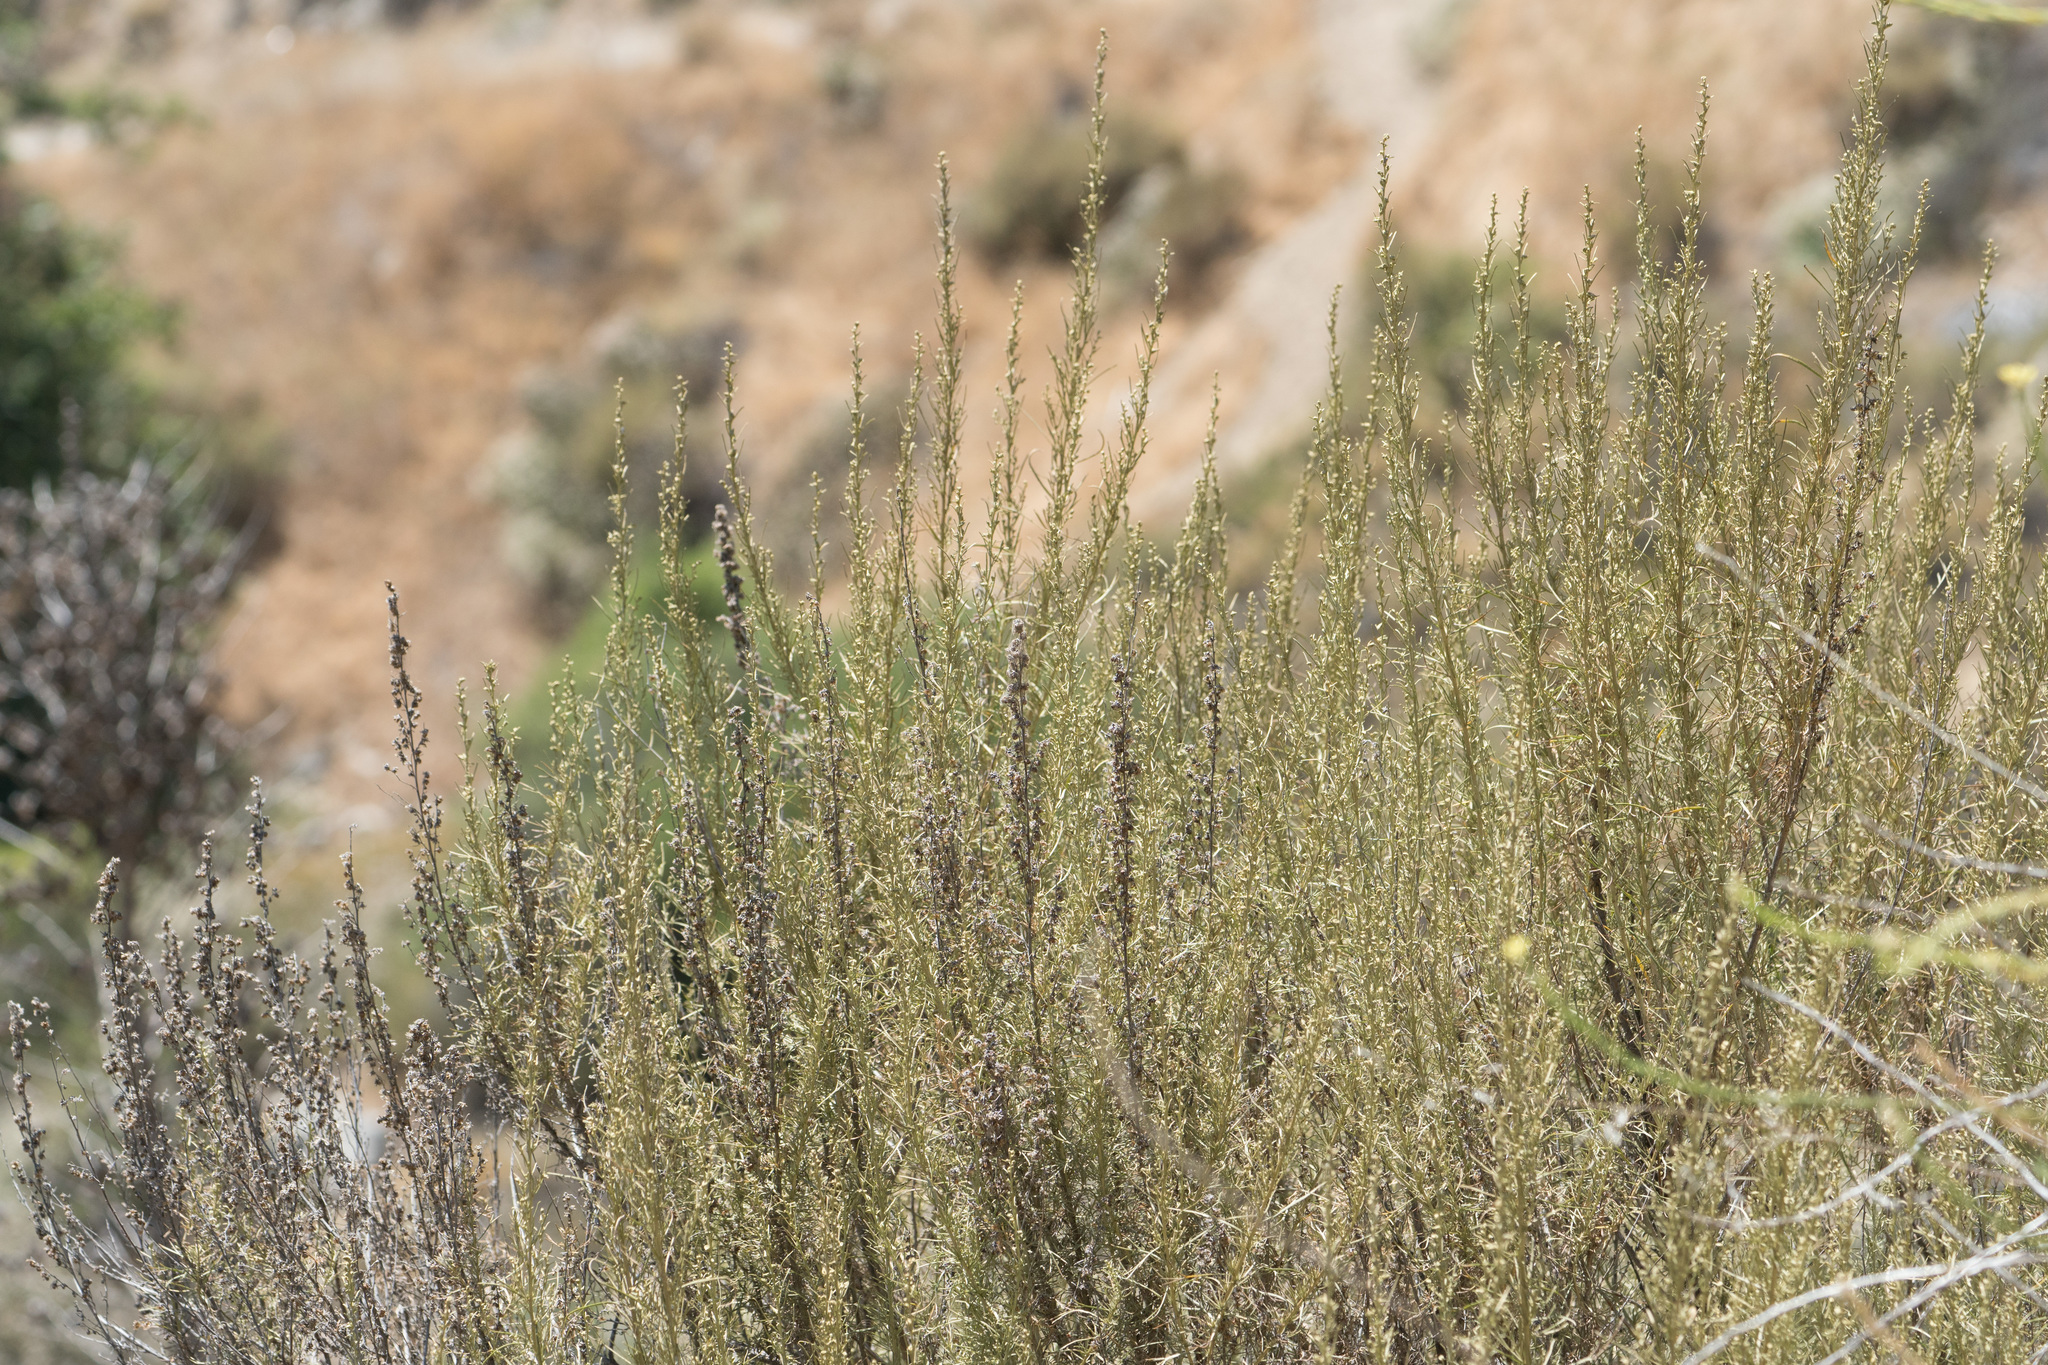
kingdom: Plantae
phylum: Tracheophyta
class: Magnoliopsida
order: Asterales
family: Asteraceae
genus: Artemisia
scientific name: Artemisia californica
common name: California sagebrush
